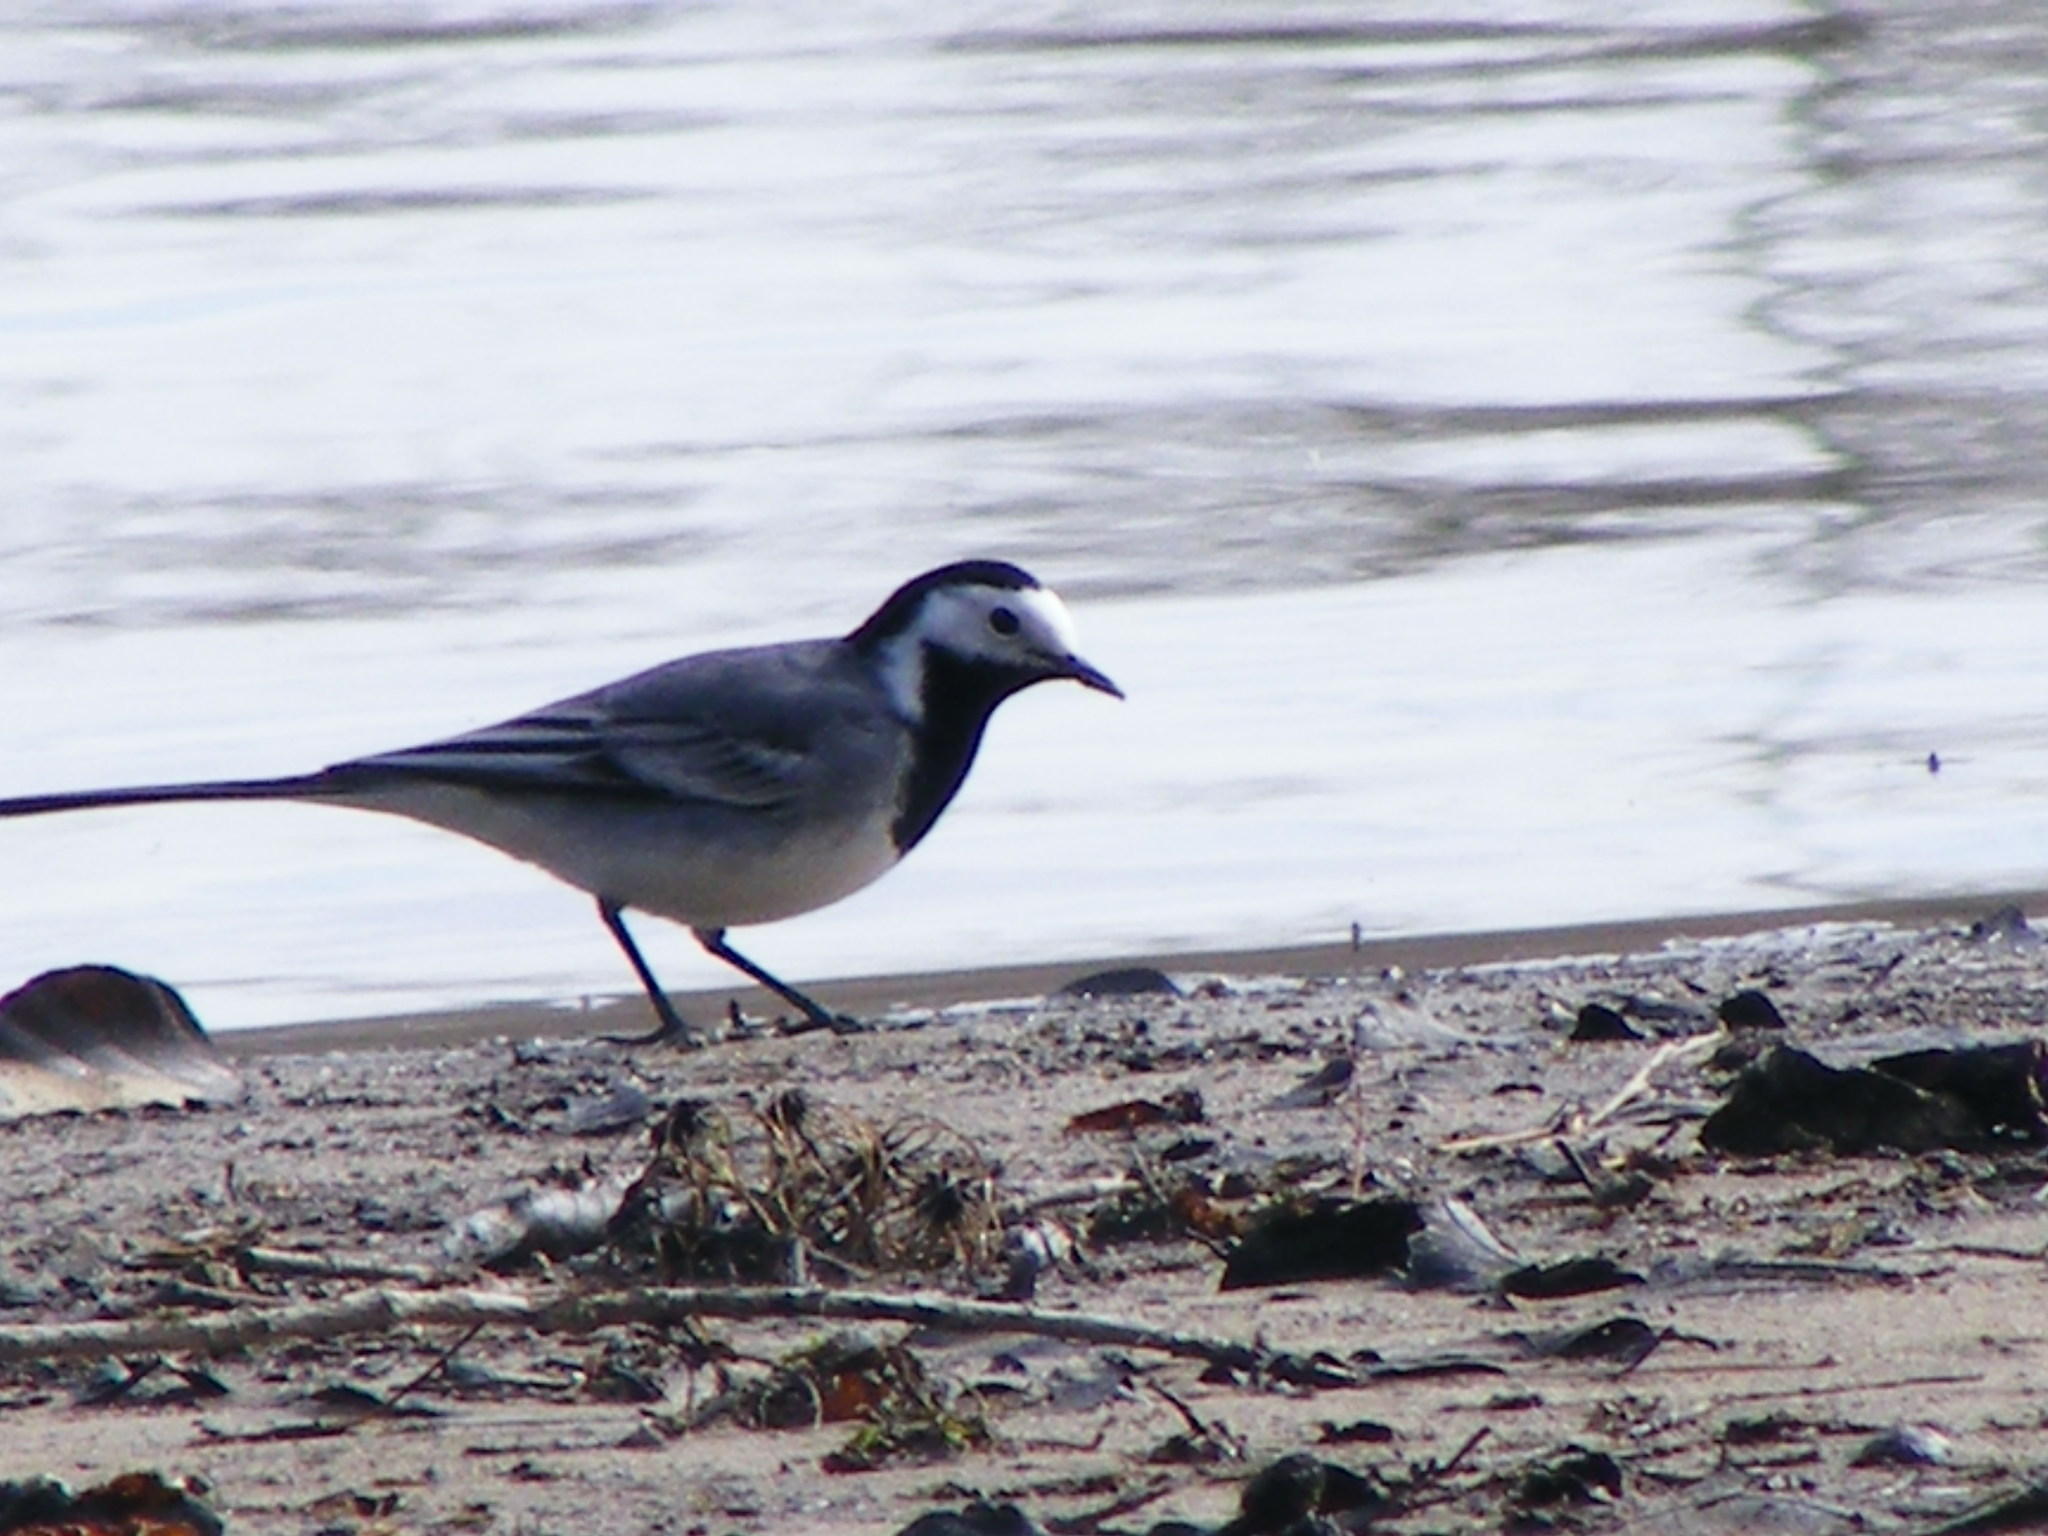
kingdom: Animalia
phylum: Chordata
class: Aves
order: Passeriformes
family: Motacillidae
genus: Motacilla
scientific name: Motacilla alba
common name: White wagtail
